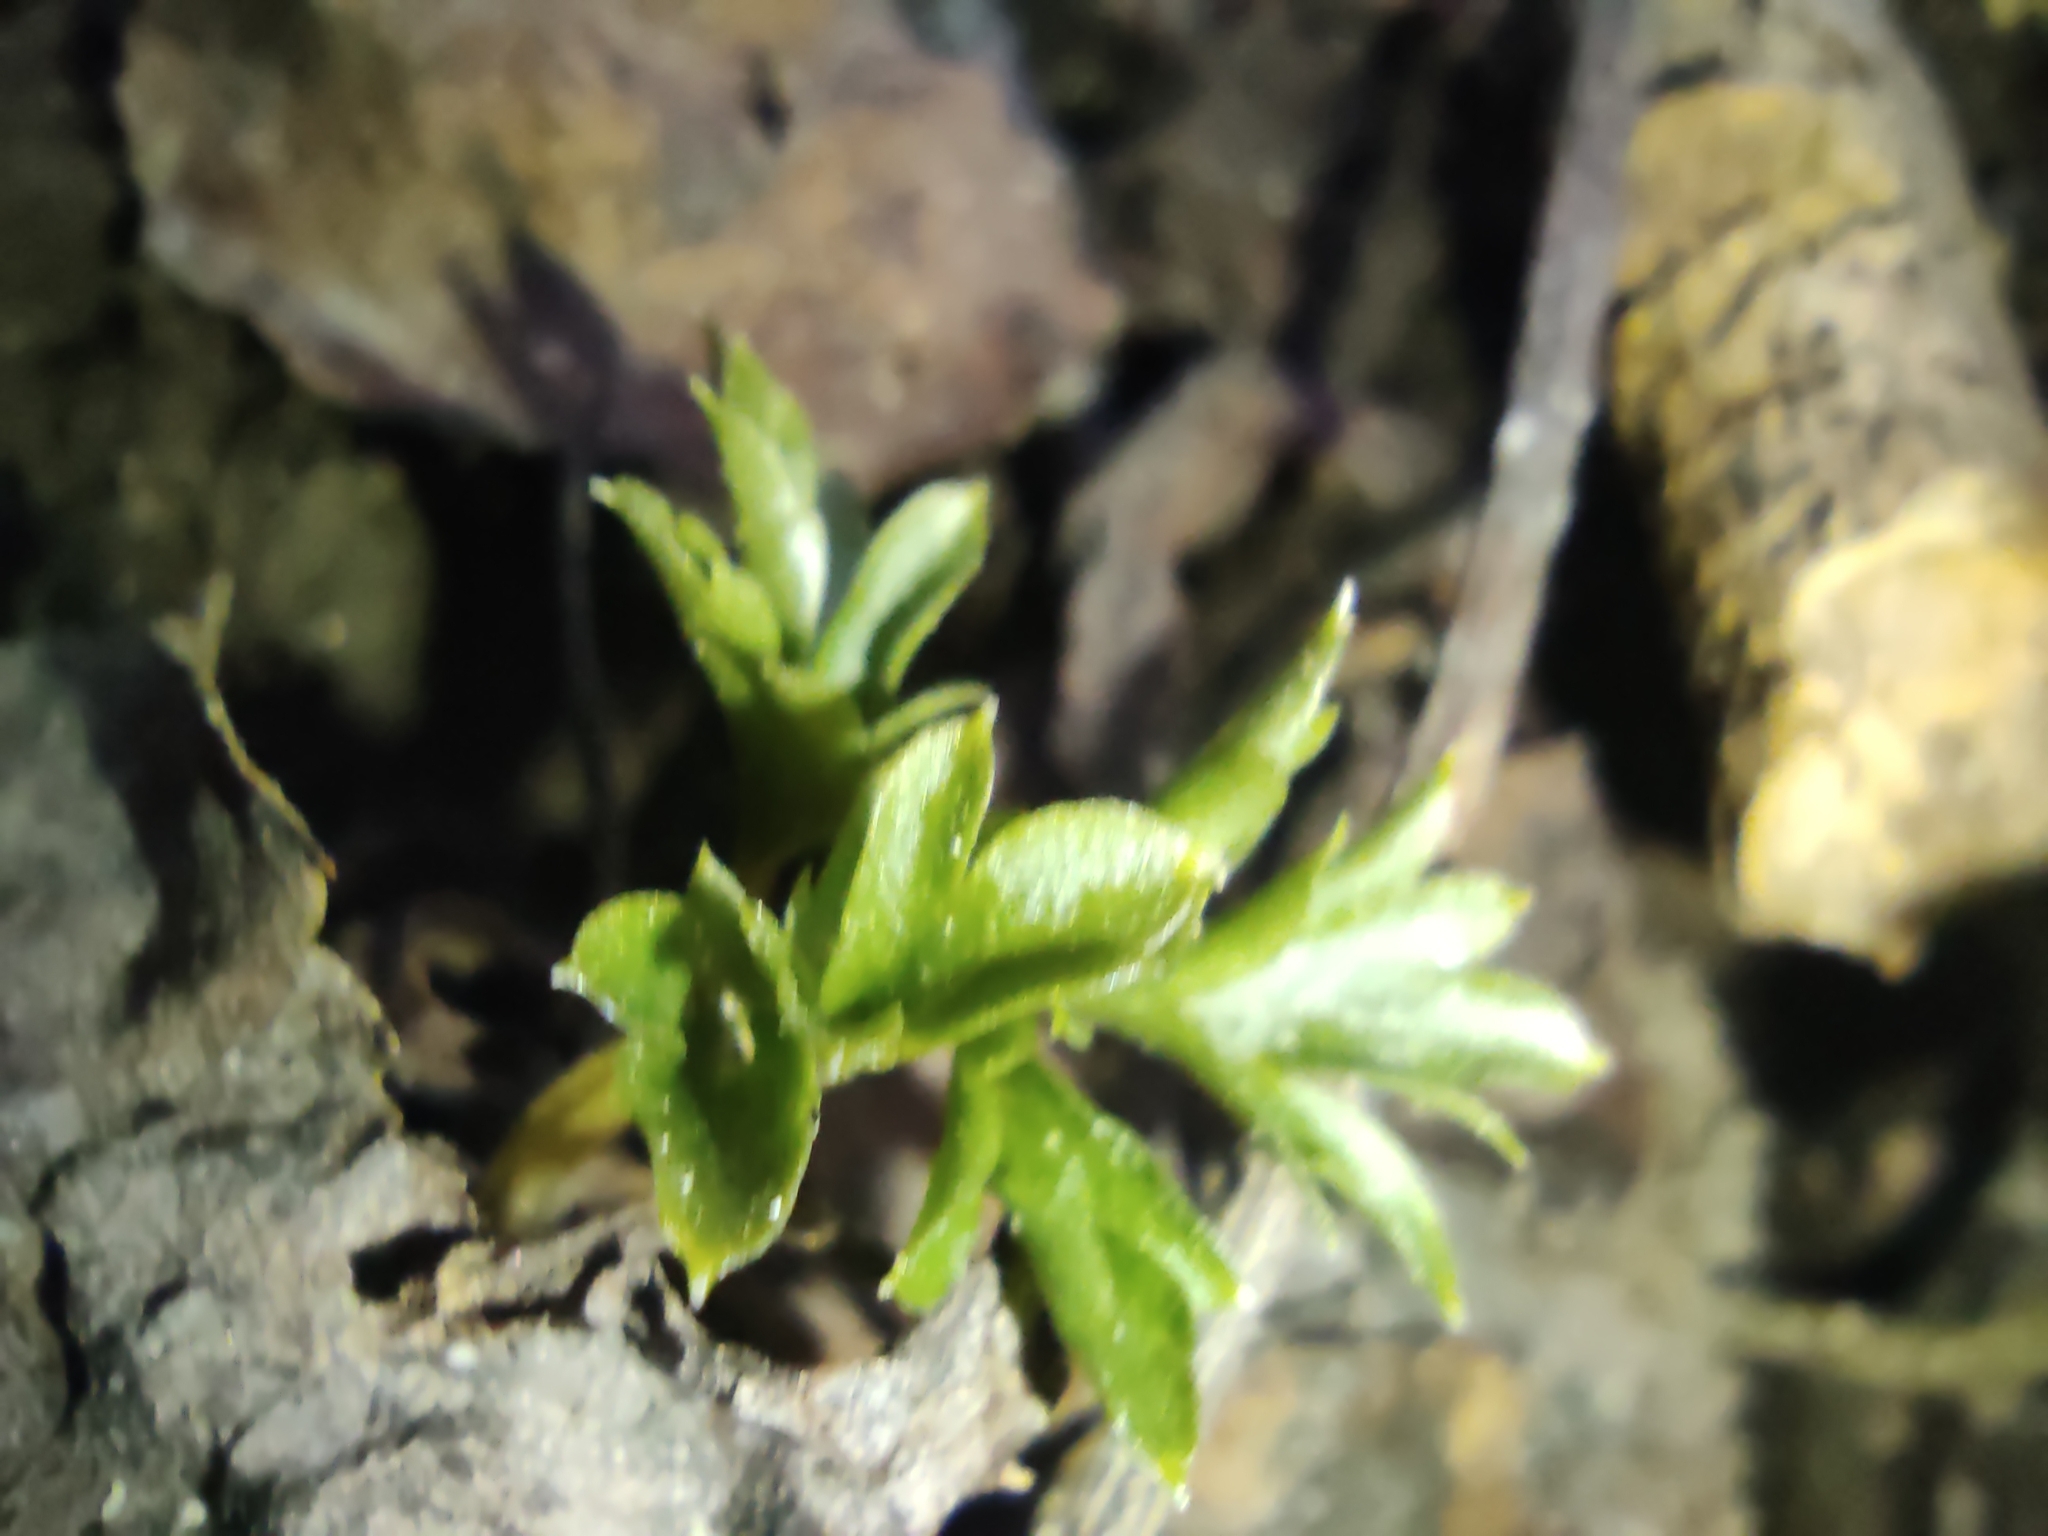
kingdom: Plantae
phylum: Tracheophyta
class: Magnoliopsida
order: Dipsacales
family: Viburnaceae
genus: Adoxa
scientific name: Adoxa moschatellina
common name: Moschatel
